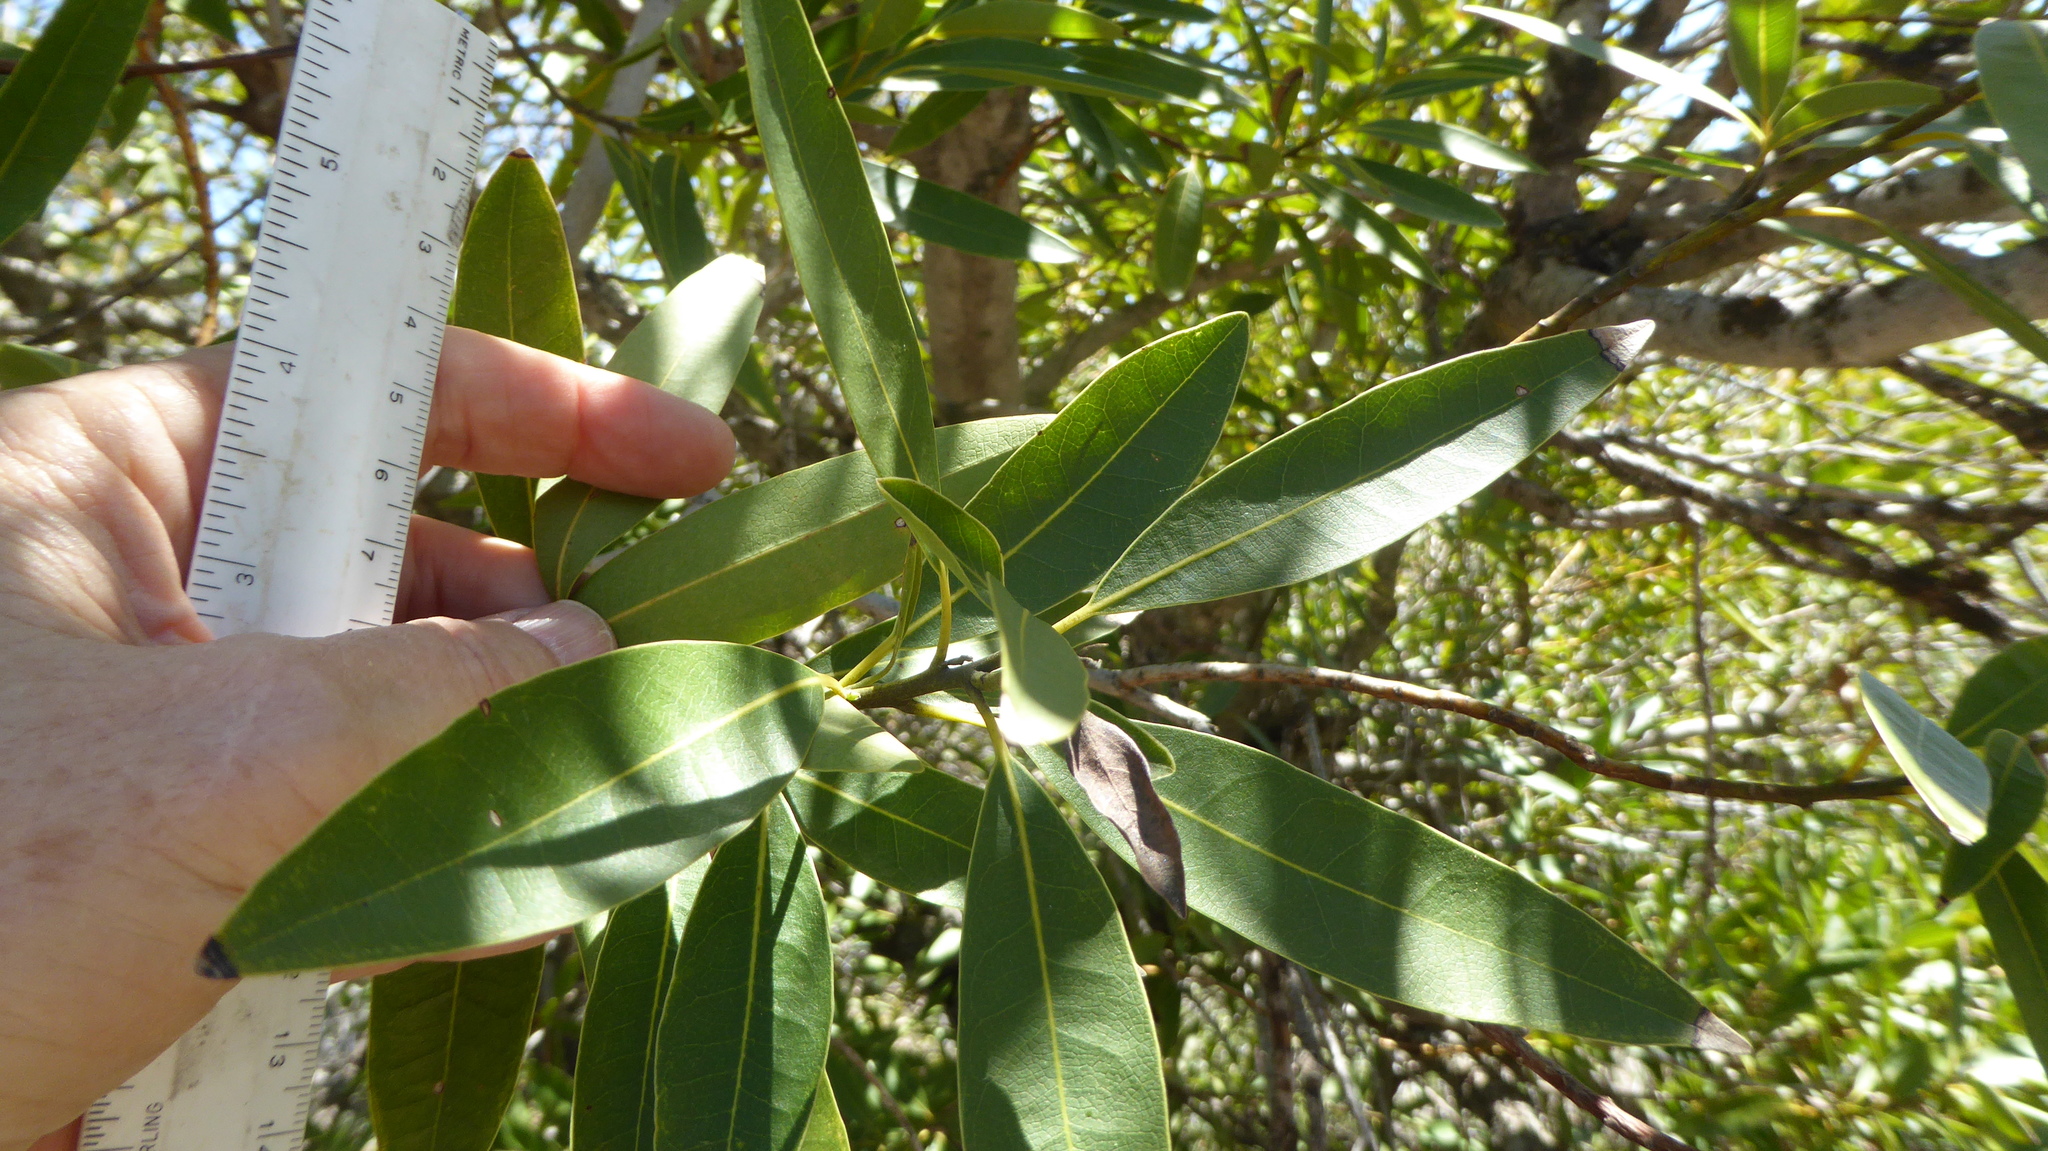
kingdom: Plantae
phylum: Tracheophyta
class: Magnoliopsida
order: Laurales
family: Lauraceae
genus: Umbellularia
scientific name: Umbellularia californica
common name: California bay
